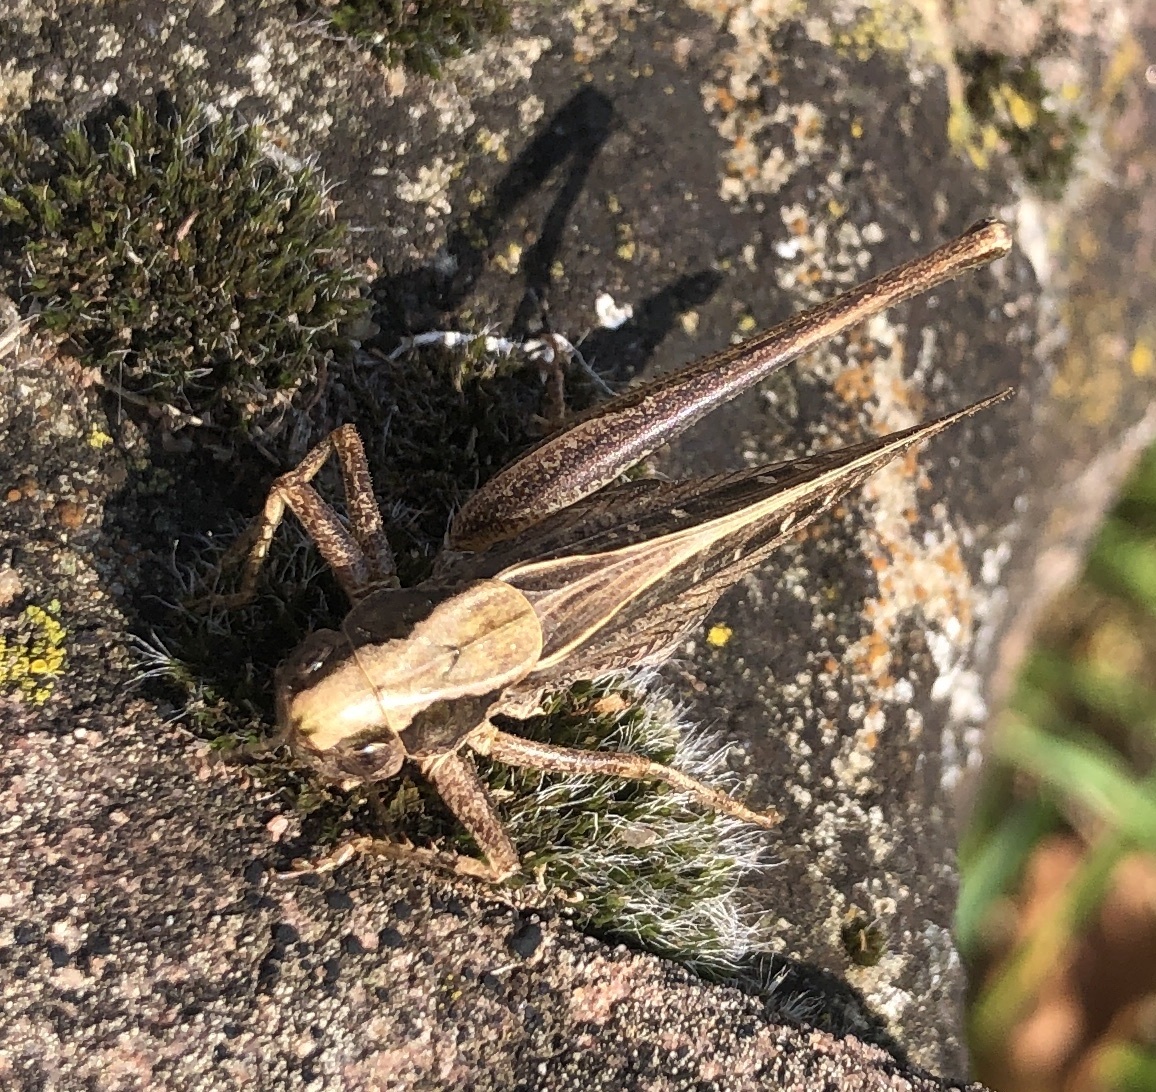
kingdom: Animalia
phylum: Arthropoda
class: Insecta
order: Orthoptera
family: Tettigoniidae
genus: Platycleis
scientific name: Platycleis albopunctata
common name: Grey bush-cricket
